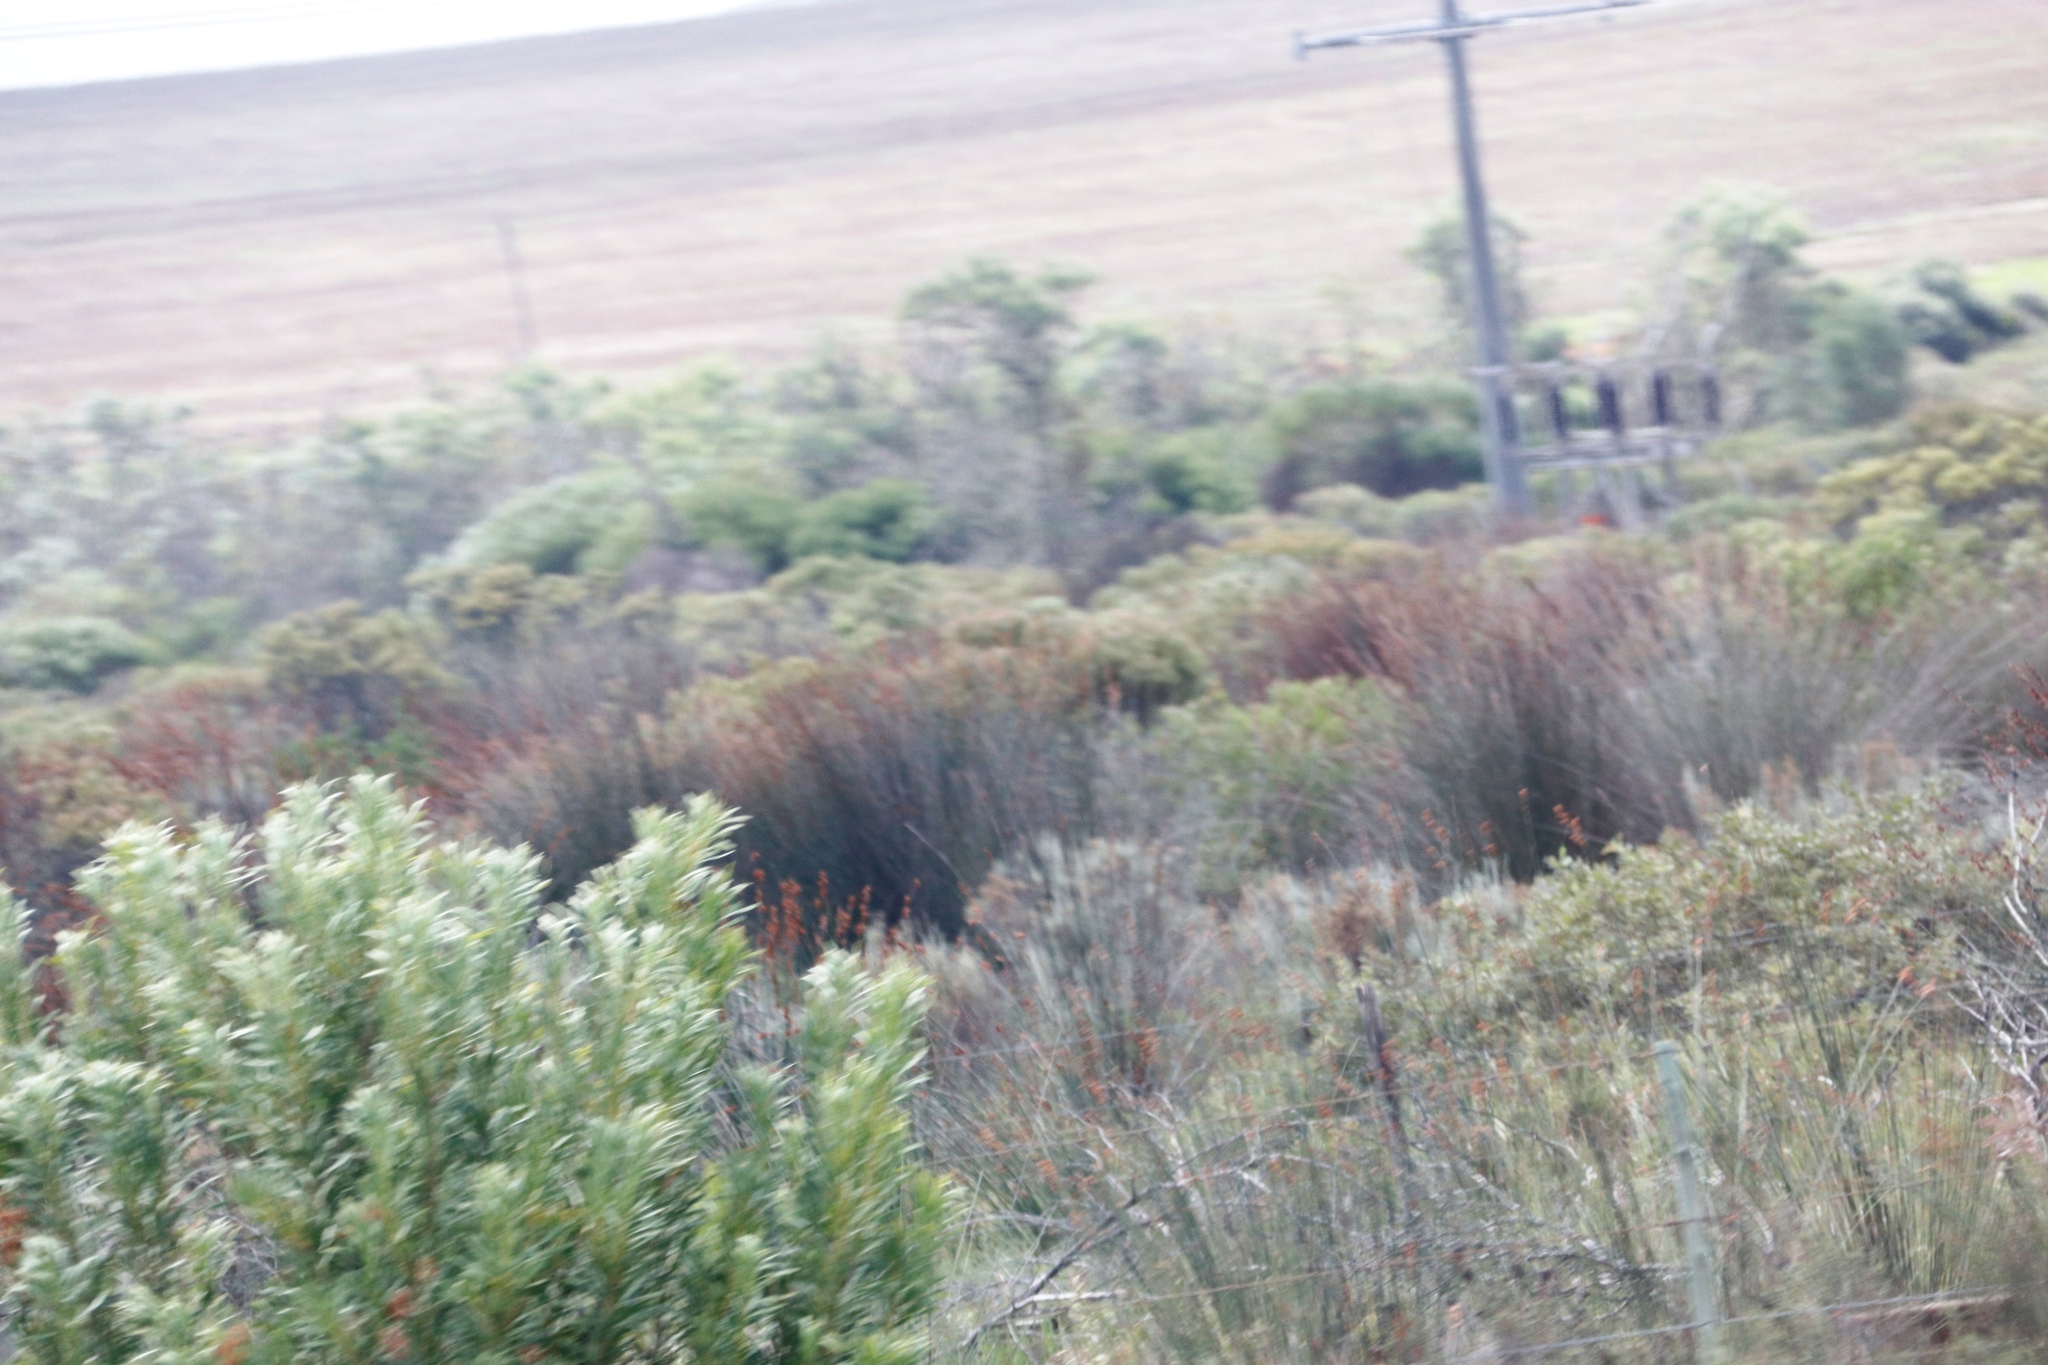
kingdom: Plantae
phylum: Tracheophyta
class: Magnoliopsida
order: Proteales
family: Proteaceae
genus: Protea
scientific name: Protea repens
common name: Sugarbush
